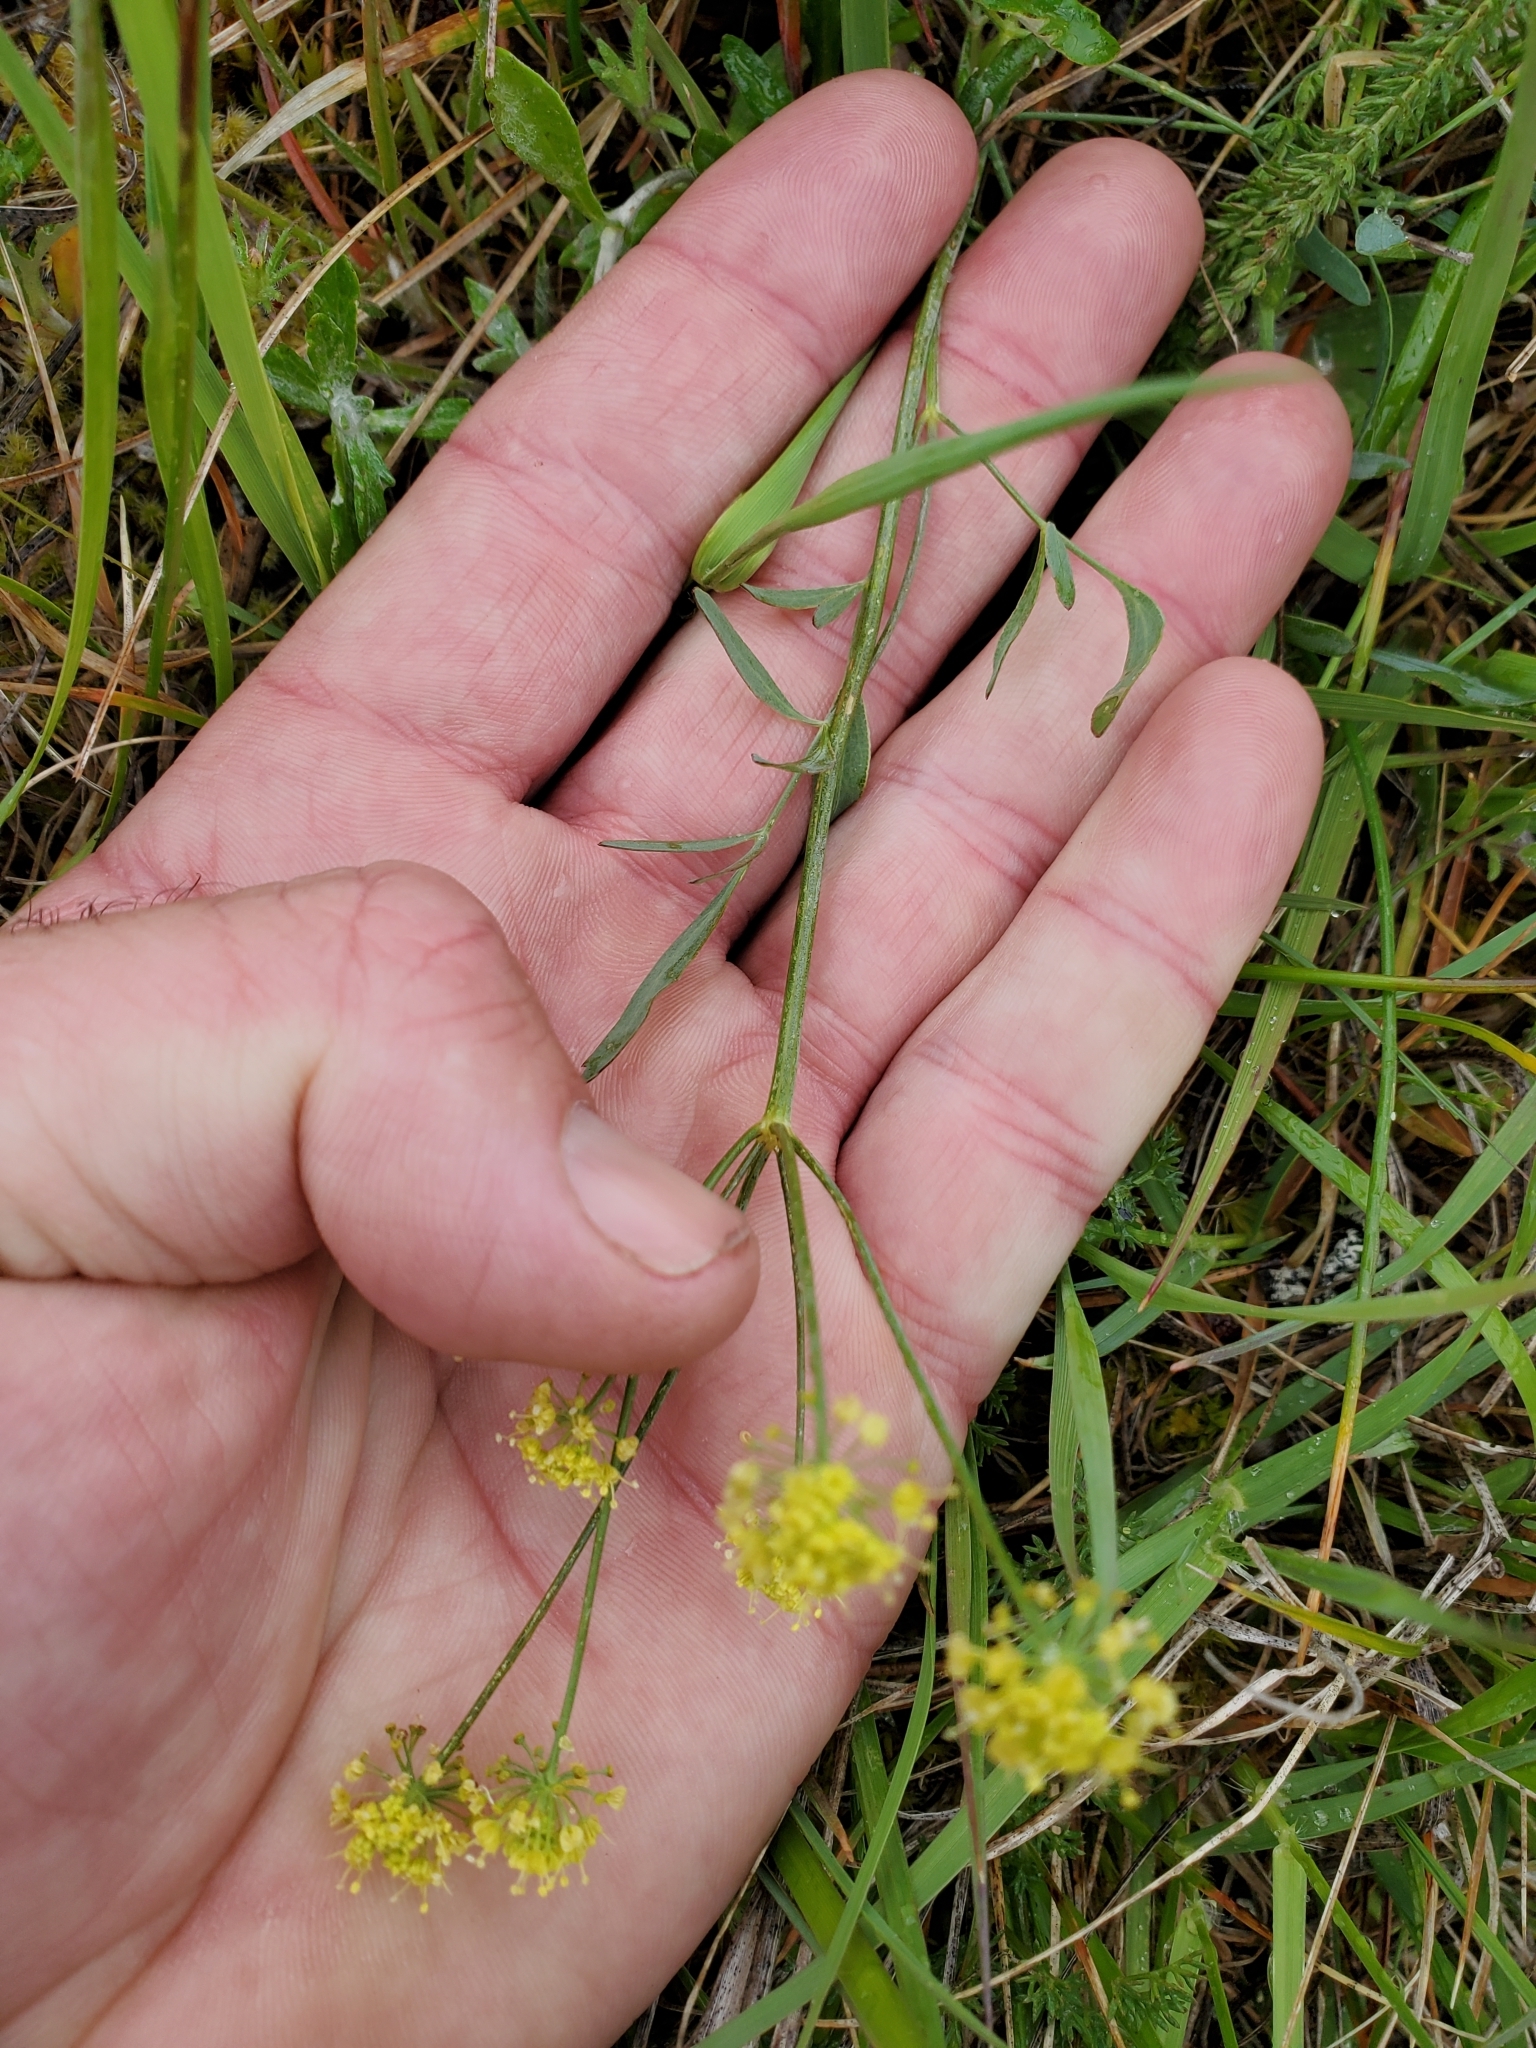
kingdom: Plantae
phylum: Tracheophyta
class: Magnoliopsida
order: Apiales
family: Apiaceae
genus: Lomatium
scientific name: Lomatium nudicaule
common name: Pestle lomatium
